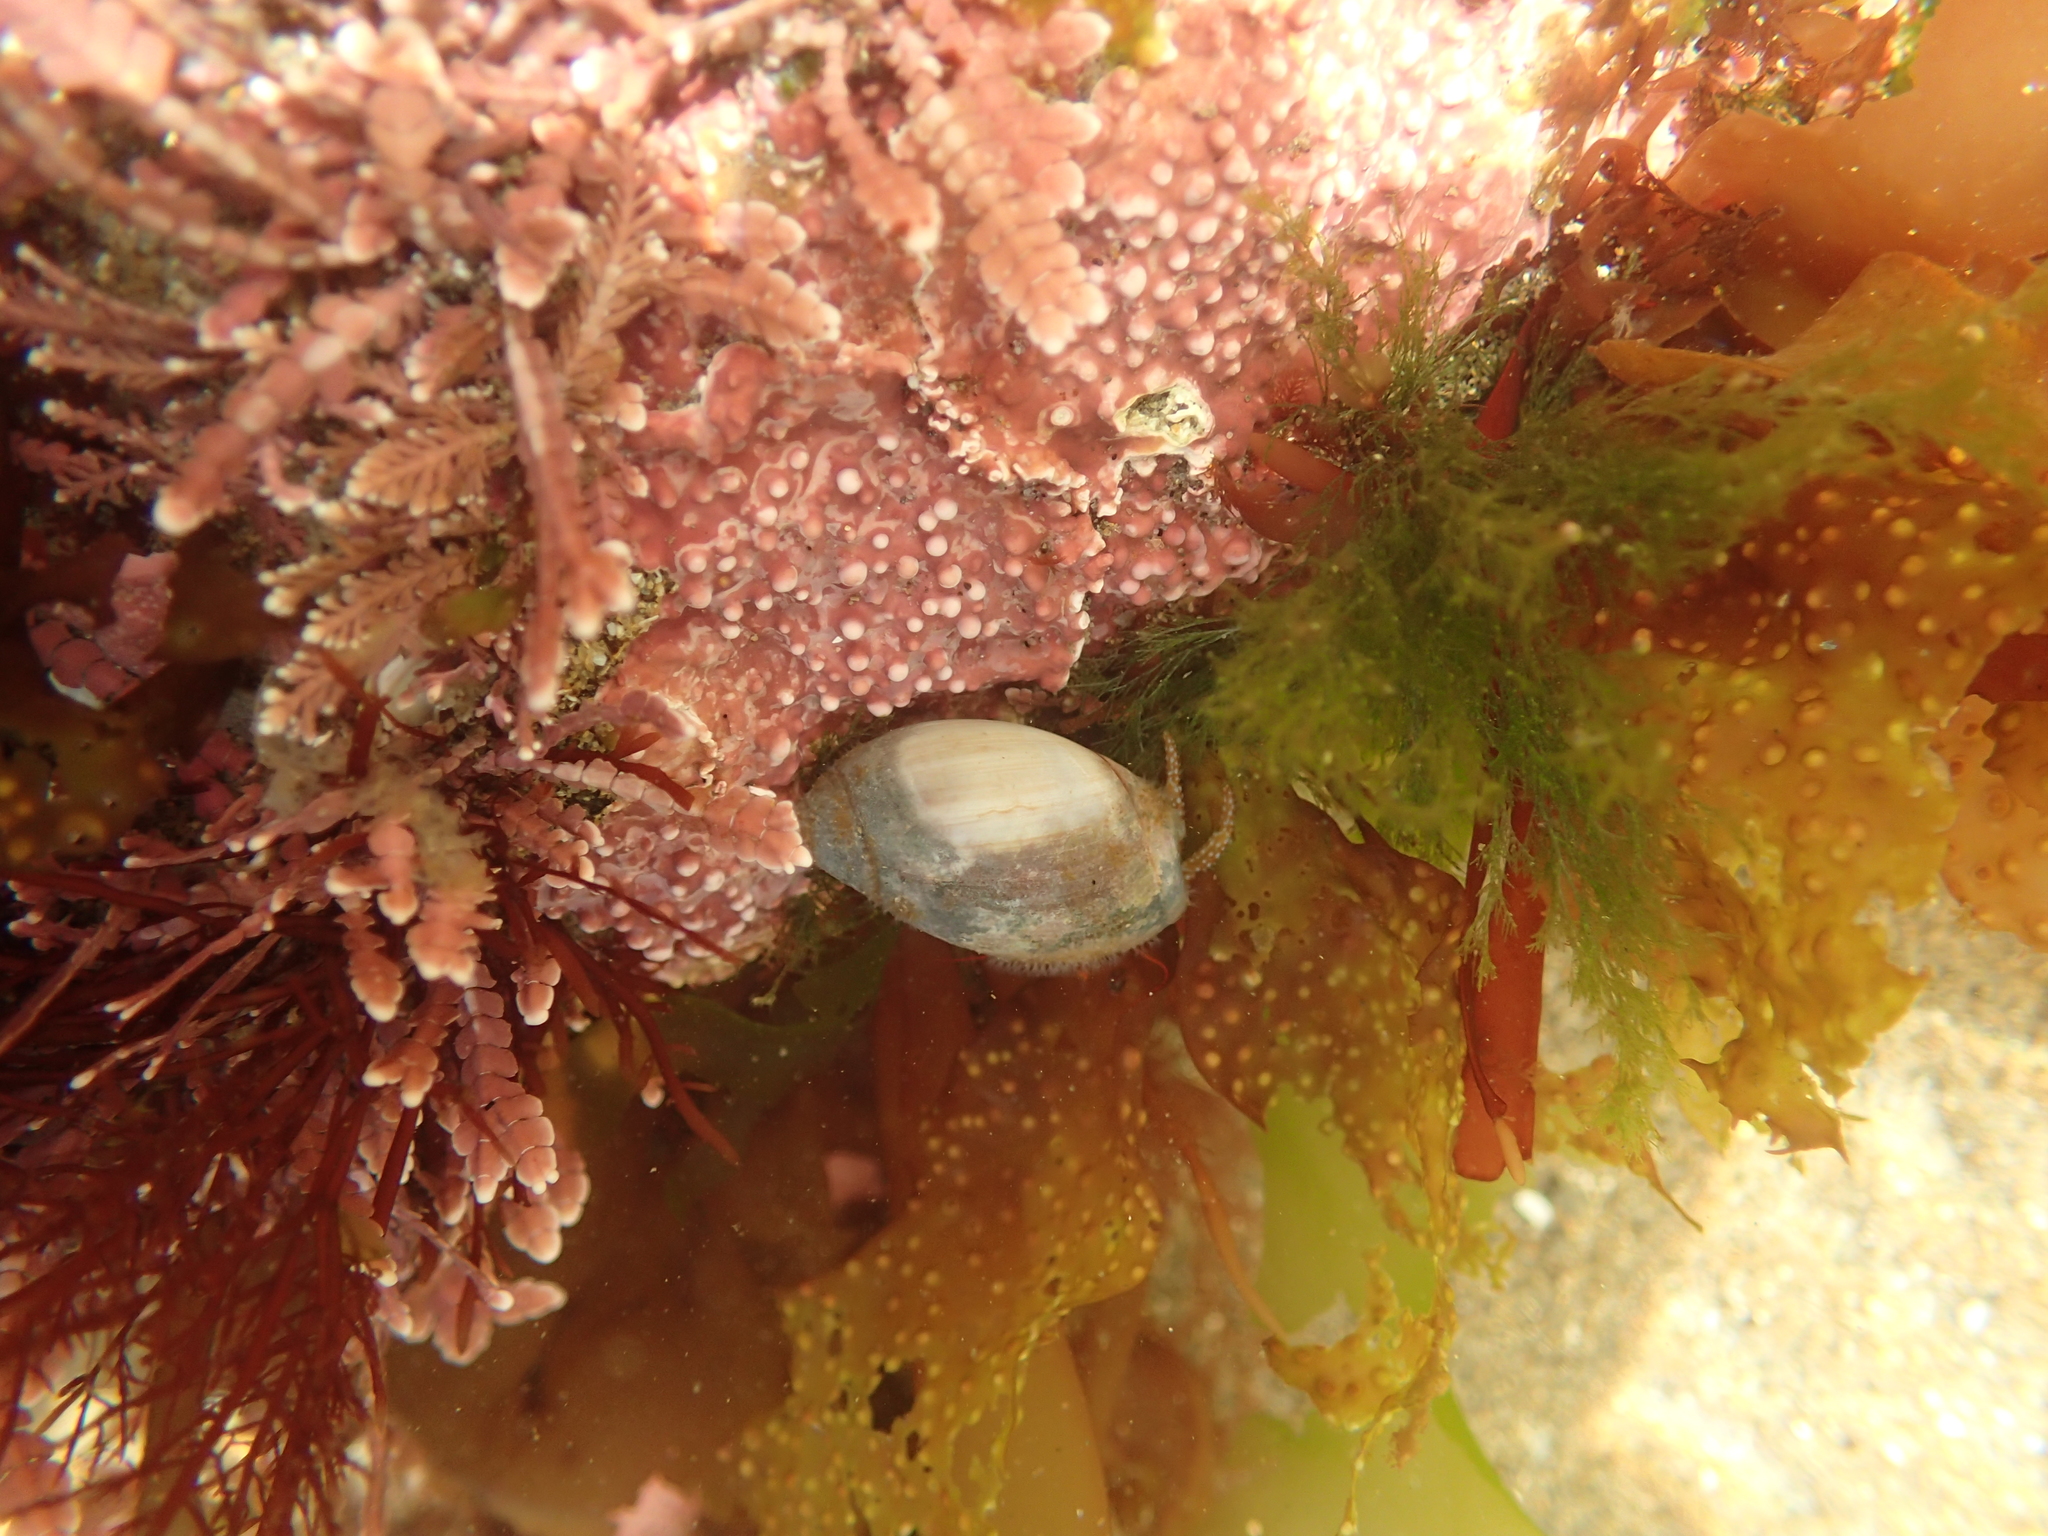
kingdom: Animalia
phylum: Arthropoda
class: Malacostraca
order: Decapoda
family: Paguridae
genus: Pagurus
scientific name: Pagurus granosimanus
